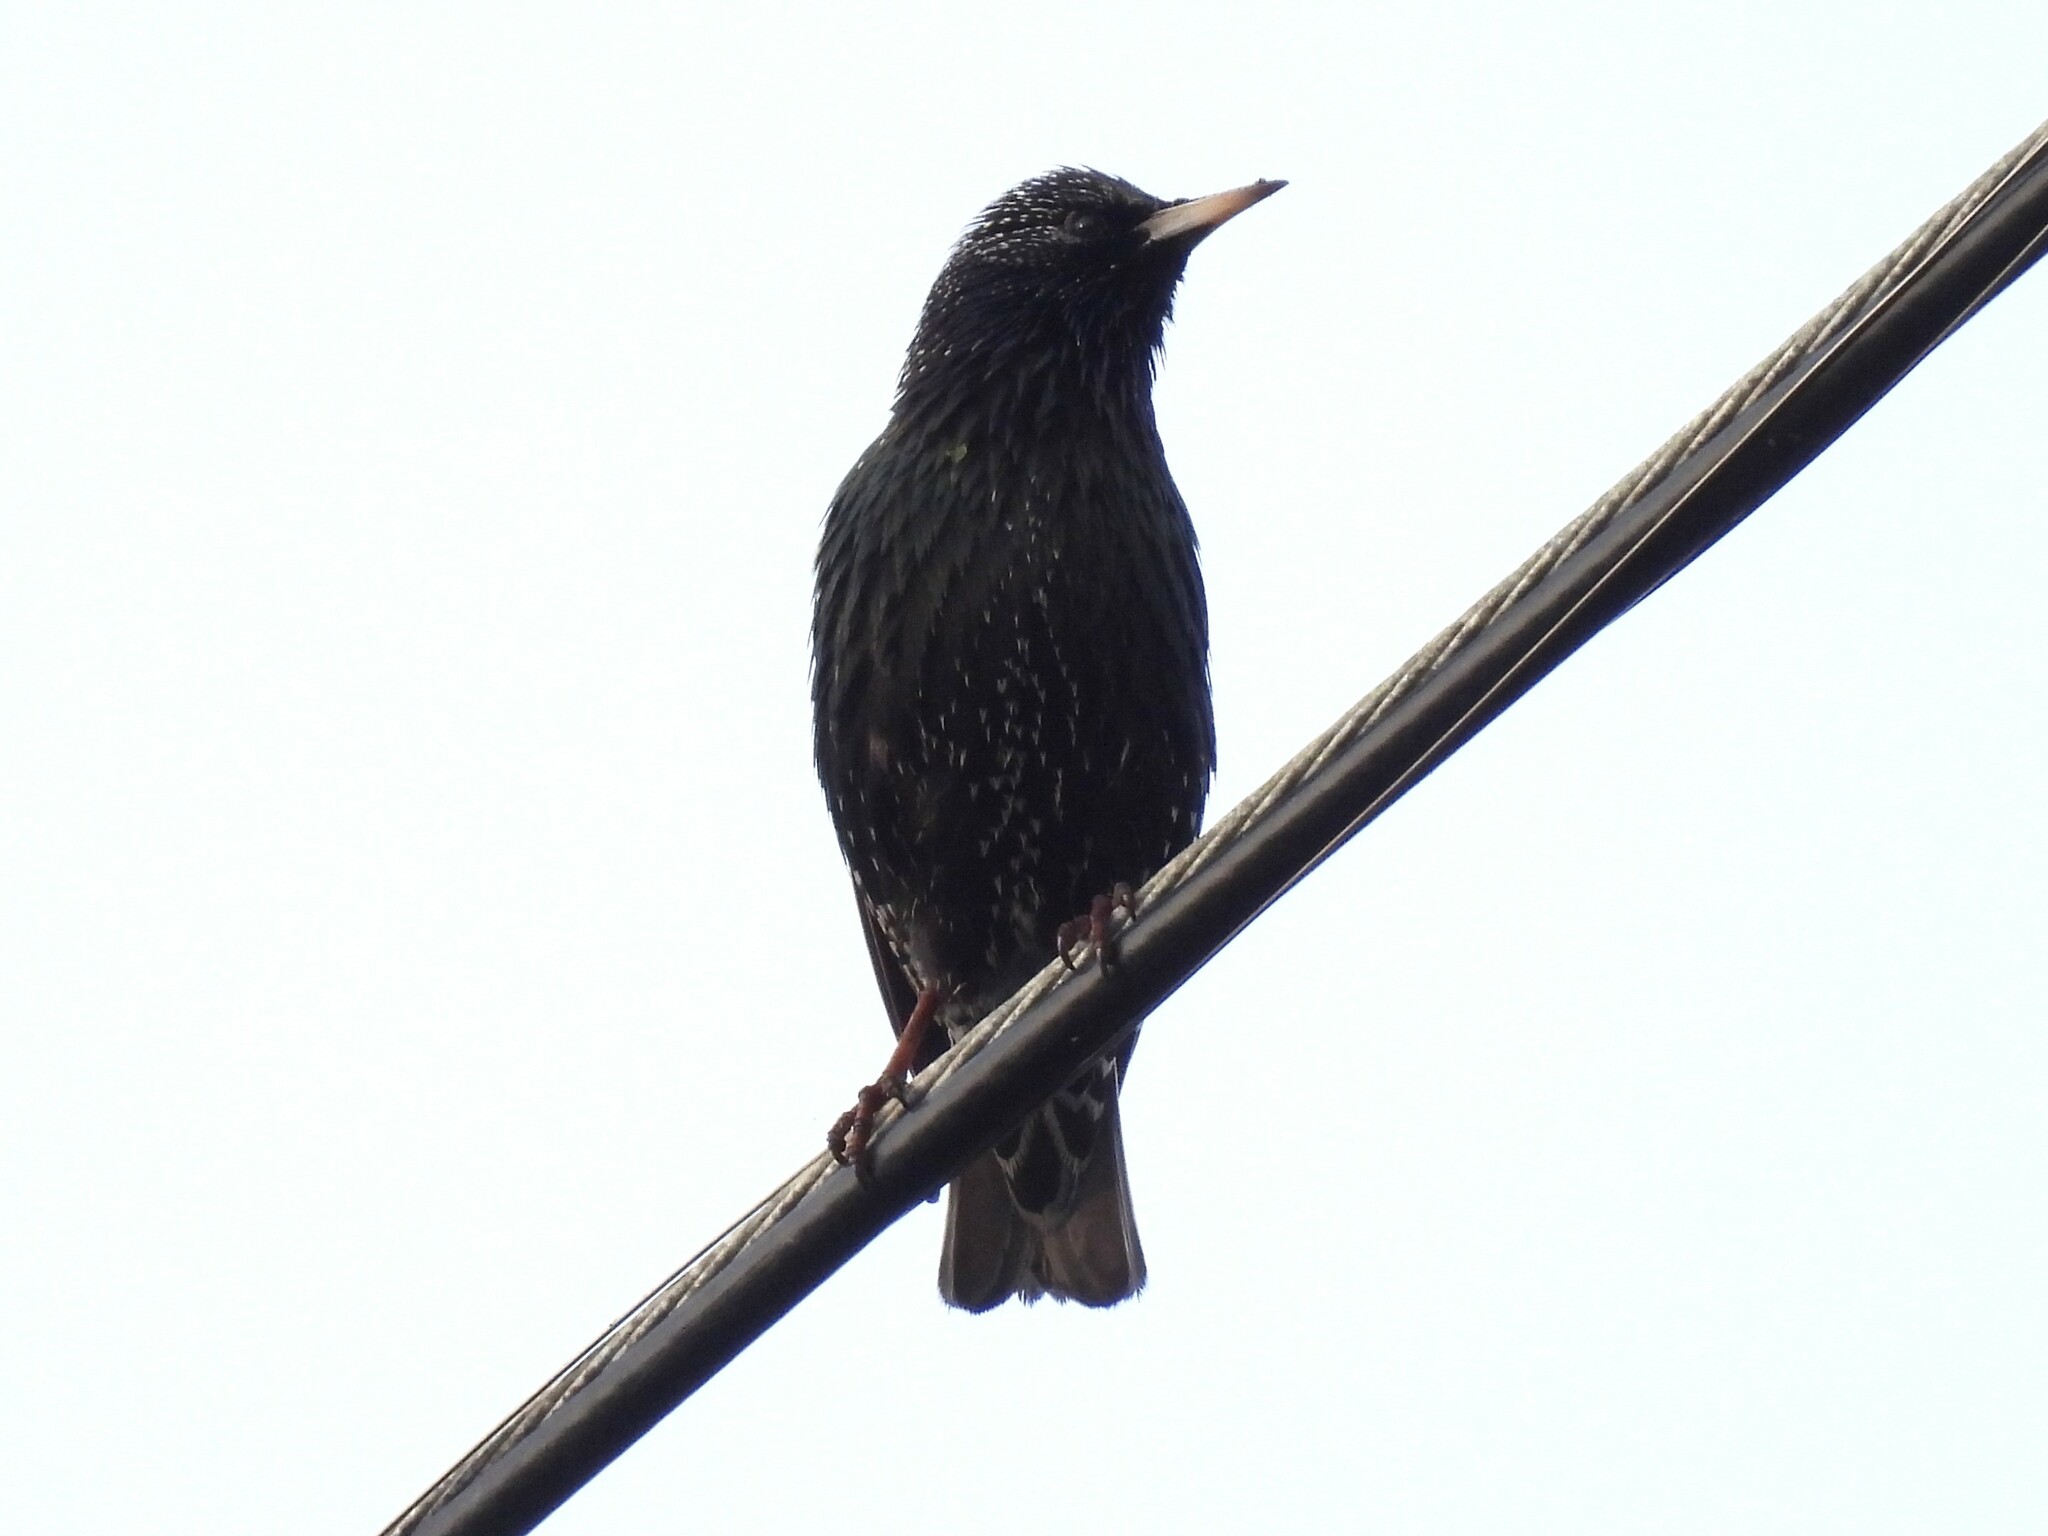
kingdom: Animalia
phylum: Chordata
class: Aves
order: Passeriformes
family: Sturnidae
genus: Sturnus
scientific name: Sturnus vulgaris
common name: Common starling
